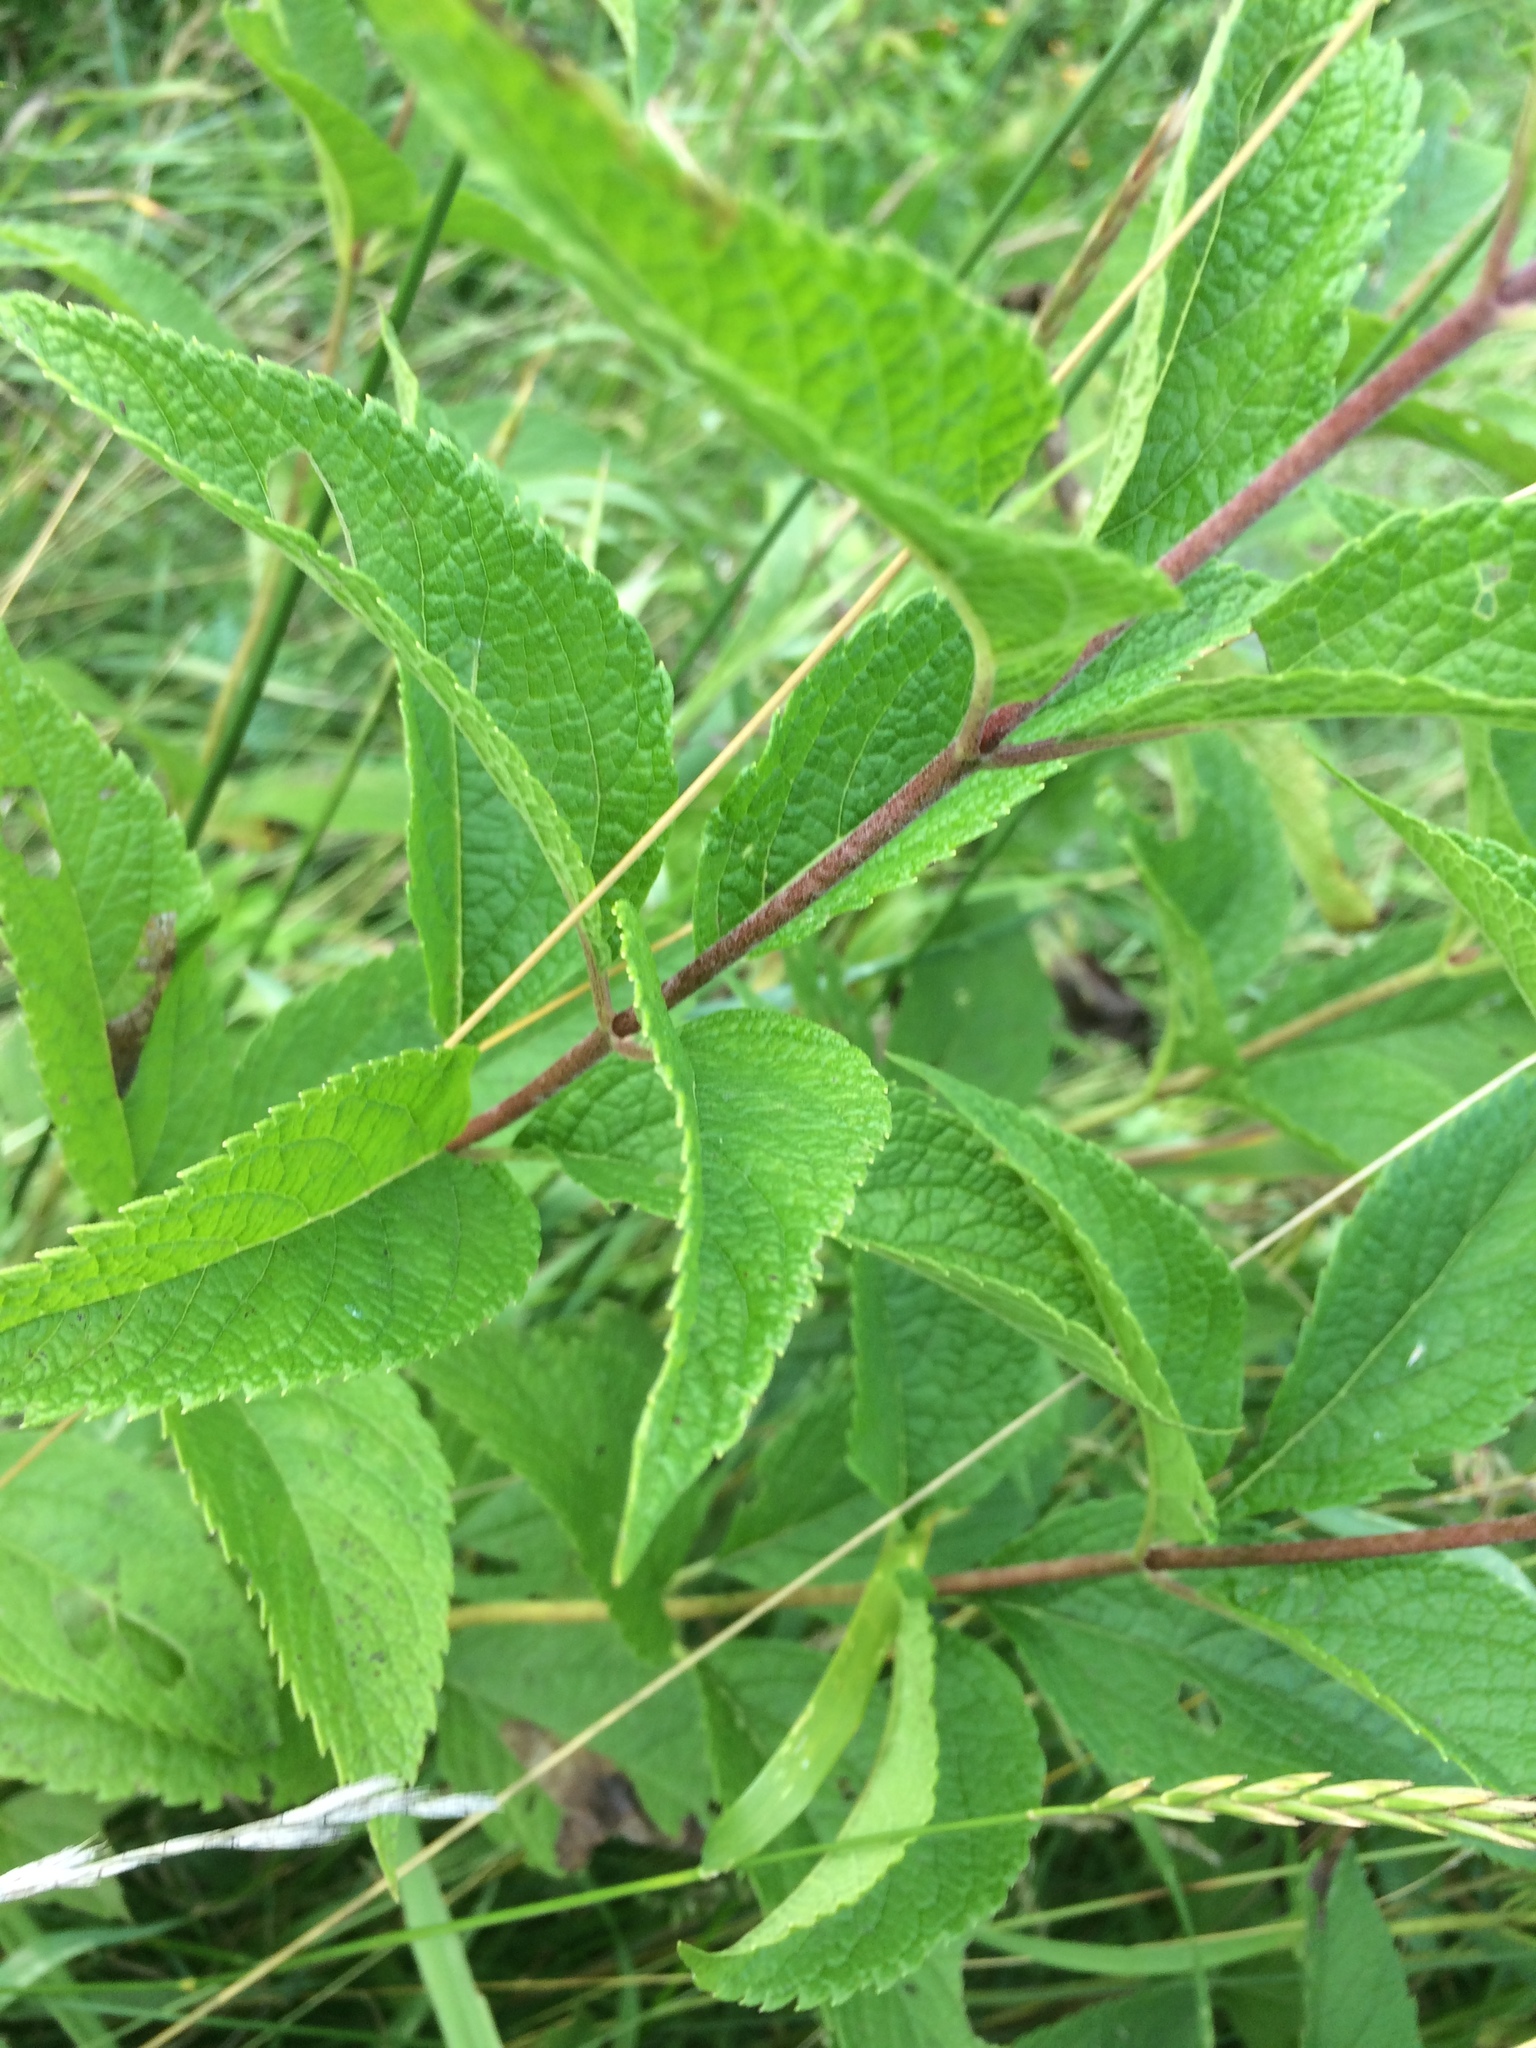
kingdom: Plantae
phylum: Tracheophyta
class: Magnoliopsida
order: Asterales
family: Asteraceae
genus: Eutrochium
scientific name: Eutrochium maculatum
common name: Spotted joe pye weed
